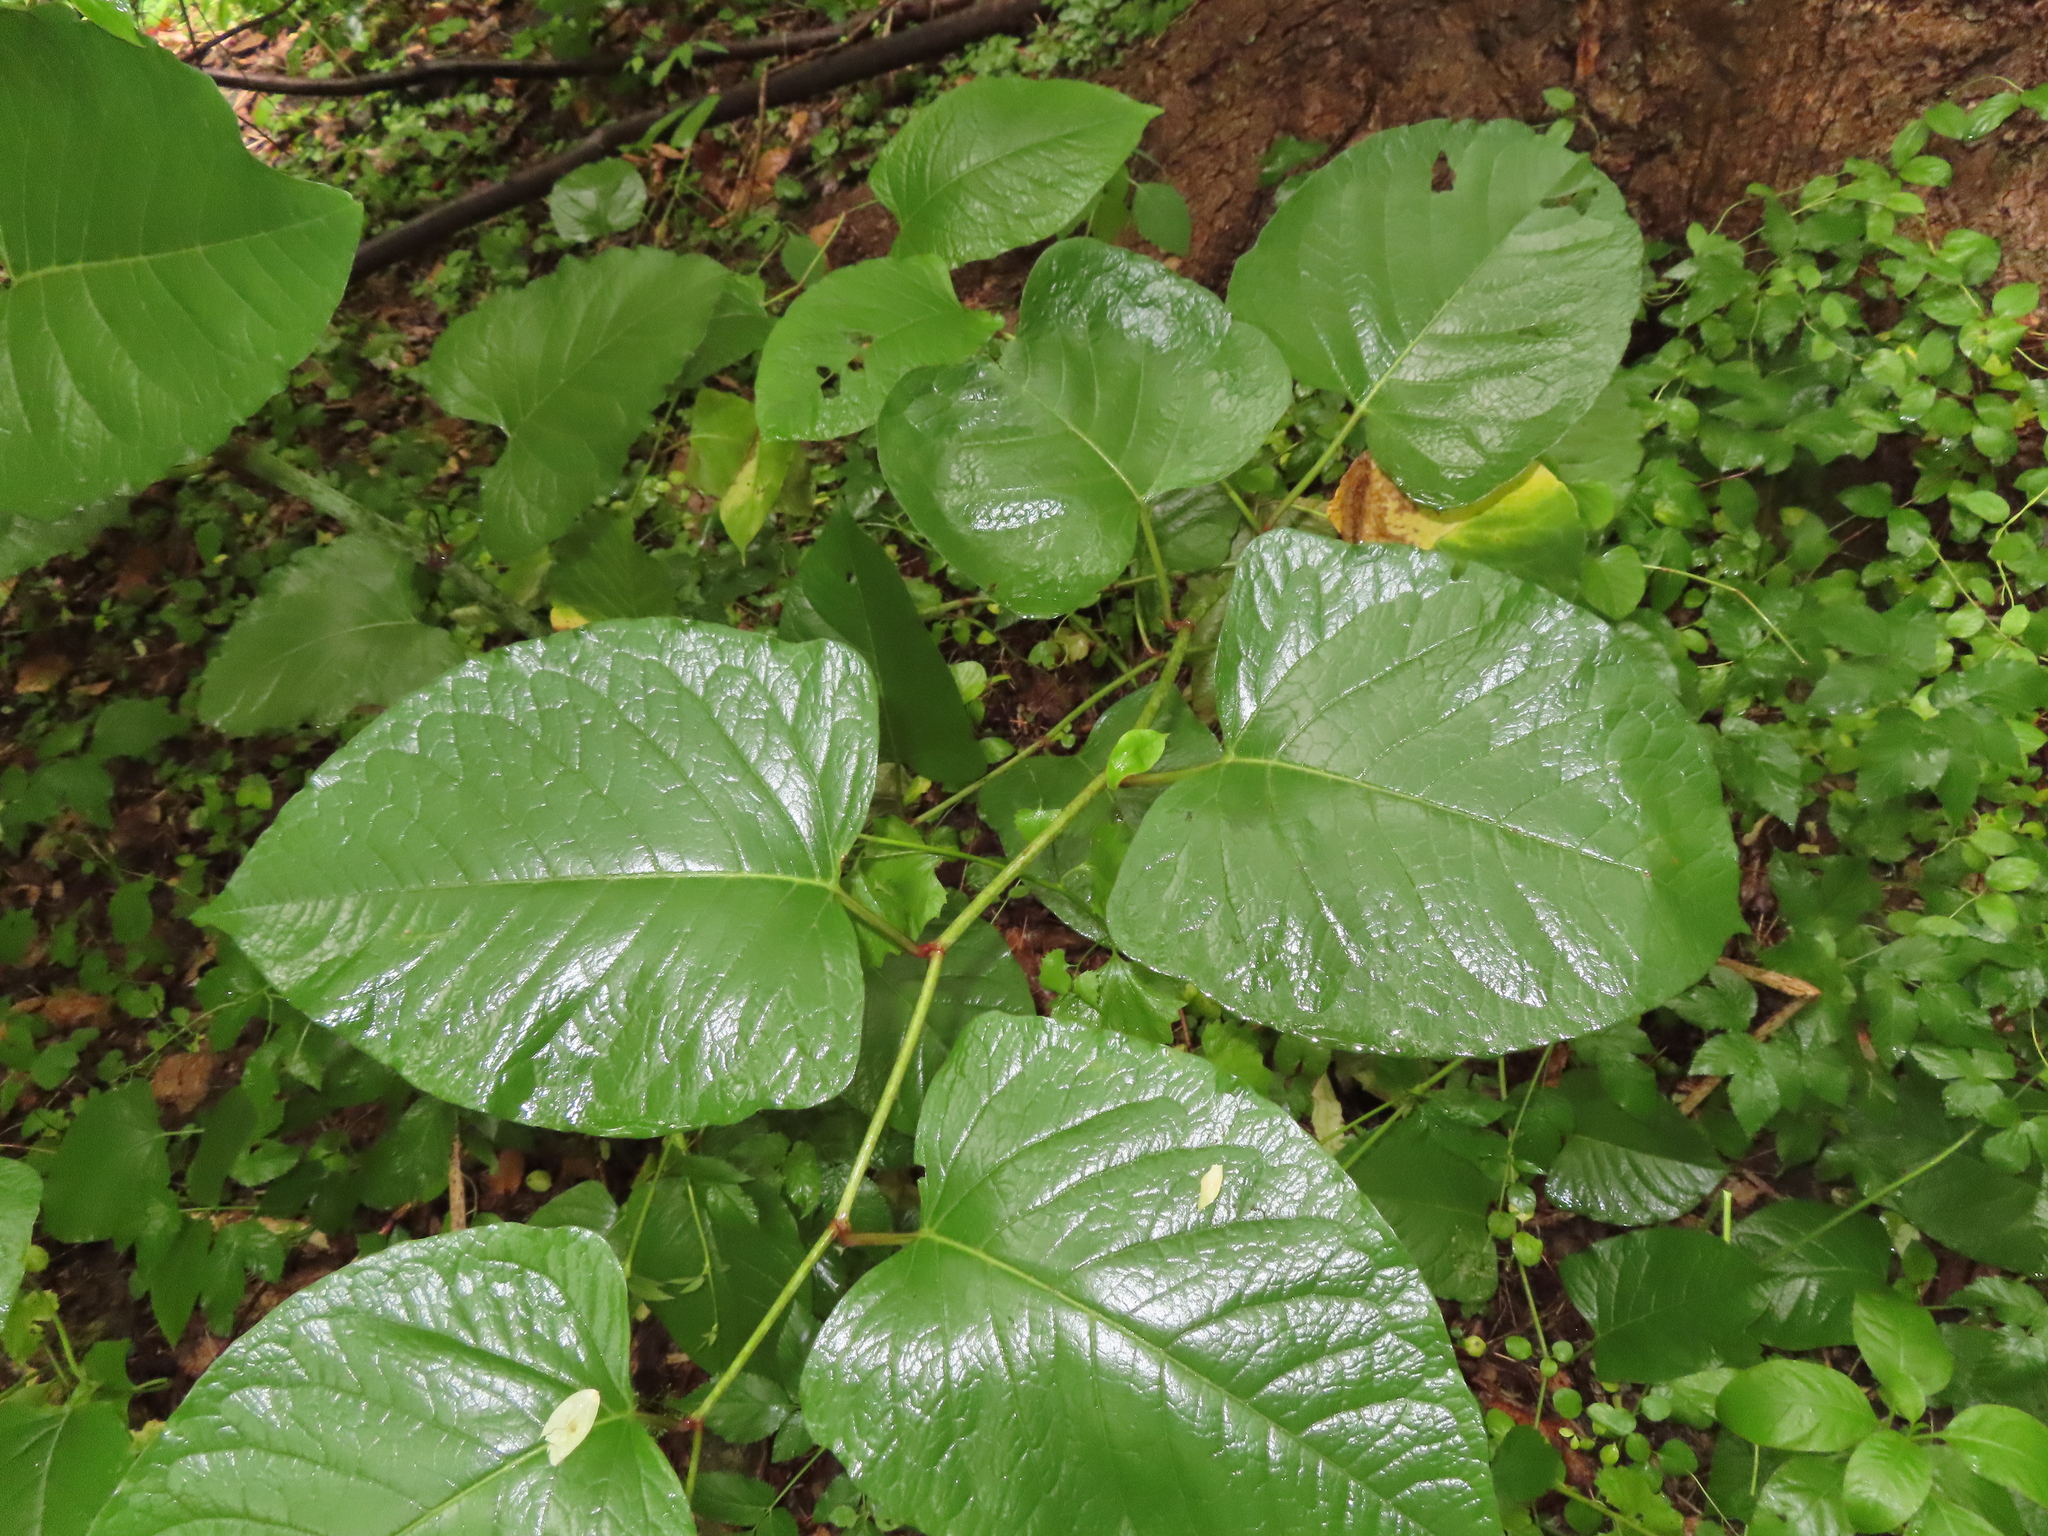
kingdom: Plantae
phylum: Tracheophyta
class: Magnoliopsida
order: Caryophyllales
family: Polygonaceae
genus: Reynoutria
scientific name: Reynoutria sachalinensis
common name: Giant knotweed
